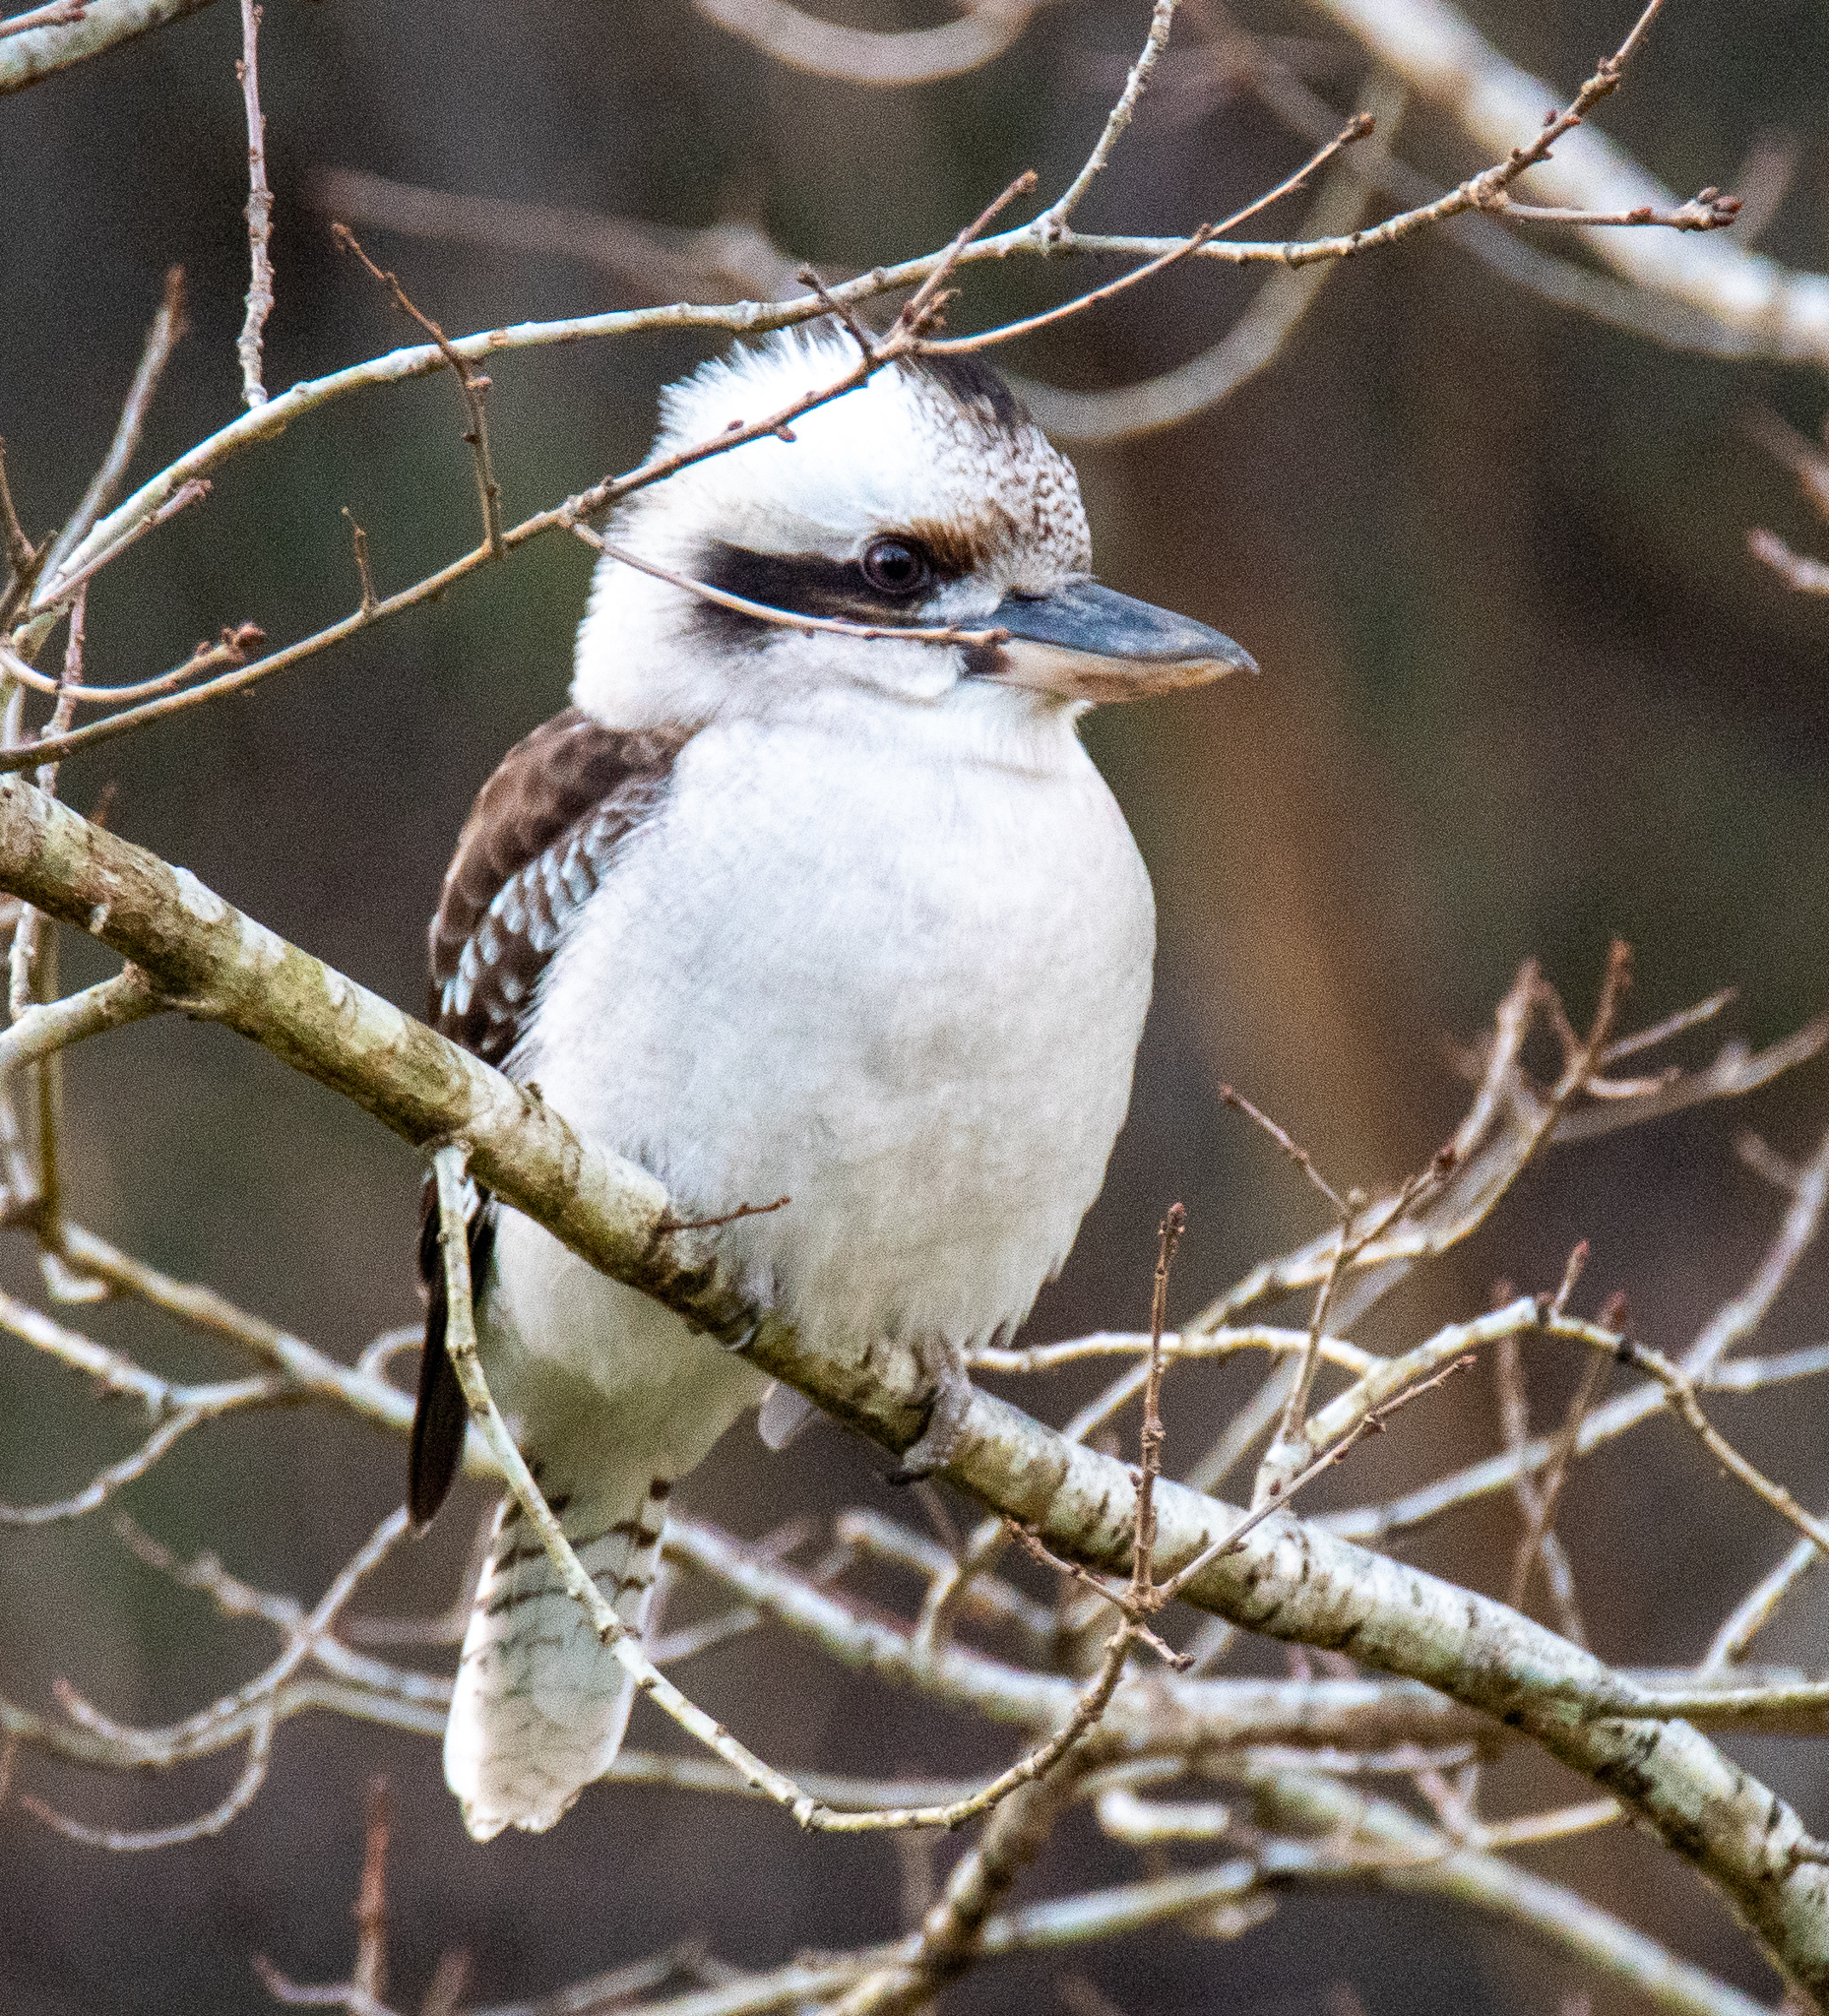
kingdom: Animalia
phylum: Chordata
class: Aves
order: Coraciiformes
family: Alcedinidae
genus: Dacelo
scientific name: Dacelo novaeguineae
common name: Laughing kookaburra
